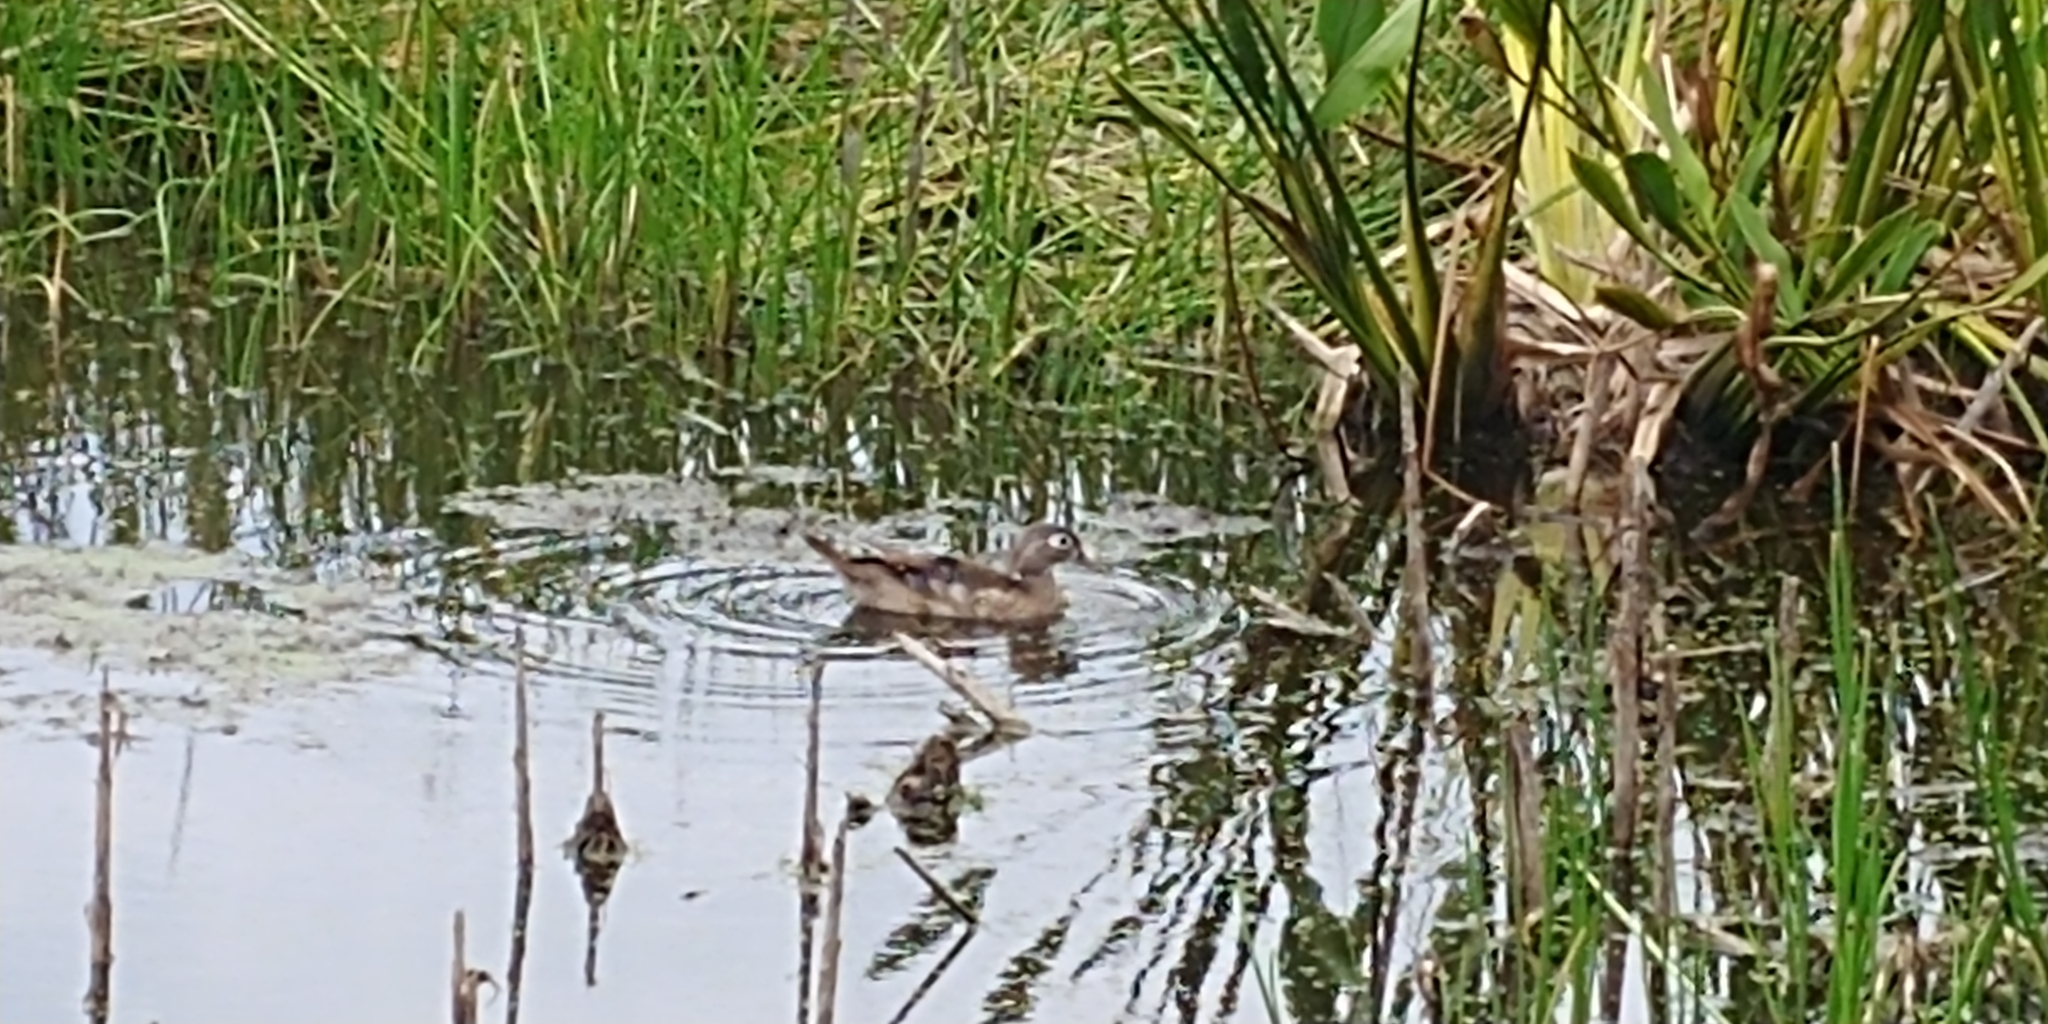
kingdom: Animalia
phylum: Chordata
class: Aves
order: Anseriformes
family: Anatidae
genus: Aix
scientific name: Aix sponsa
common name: Wood duck
